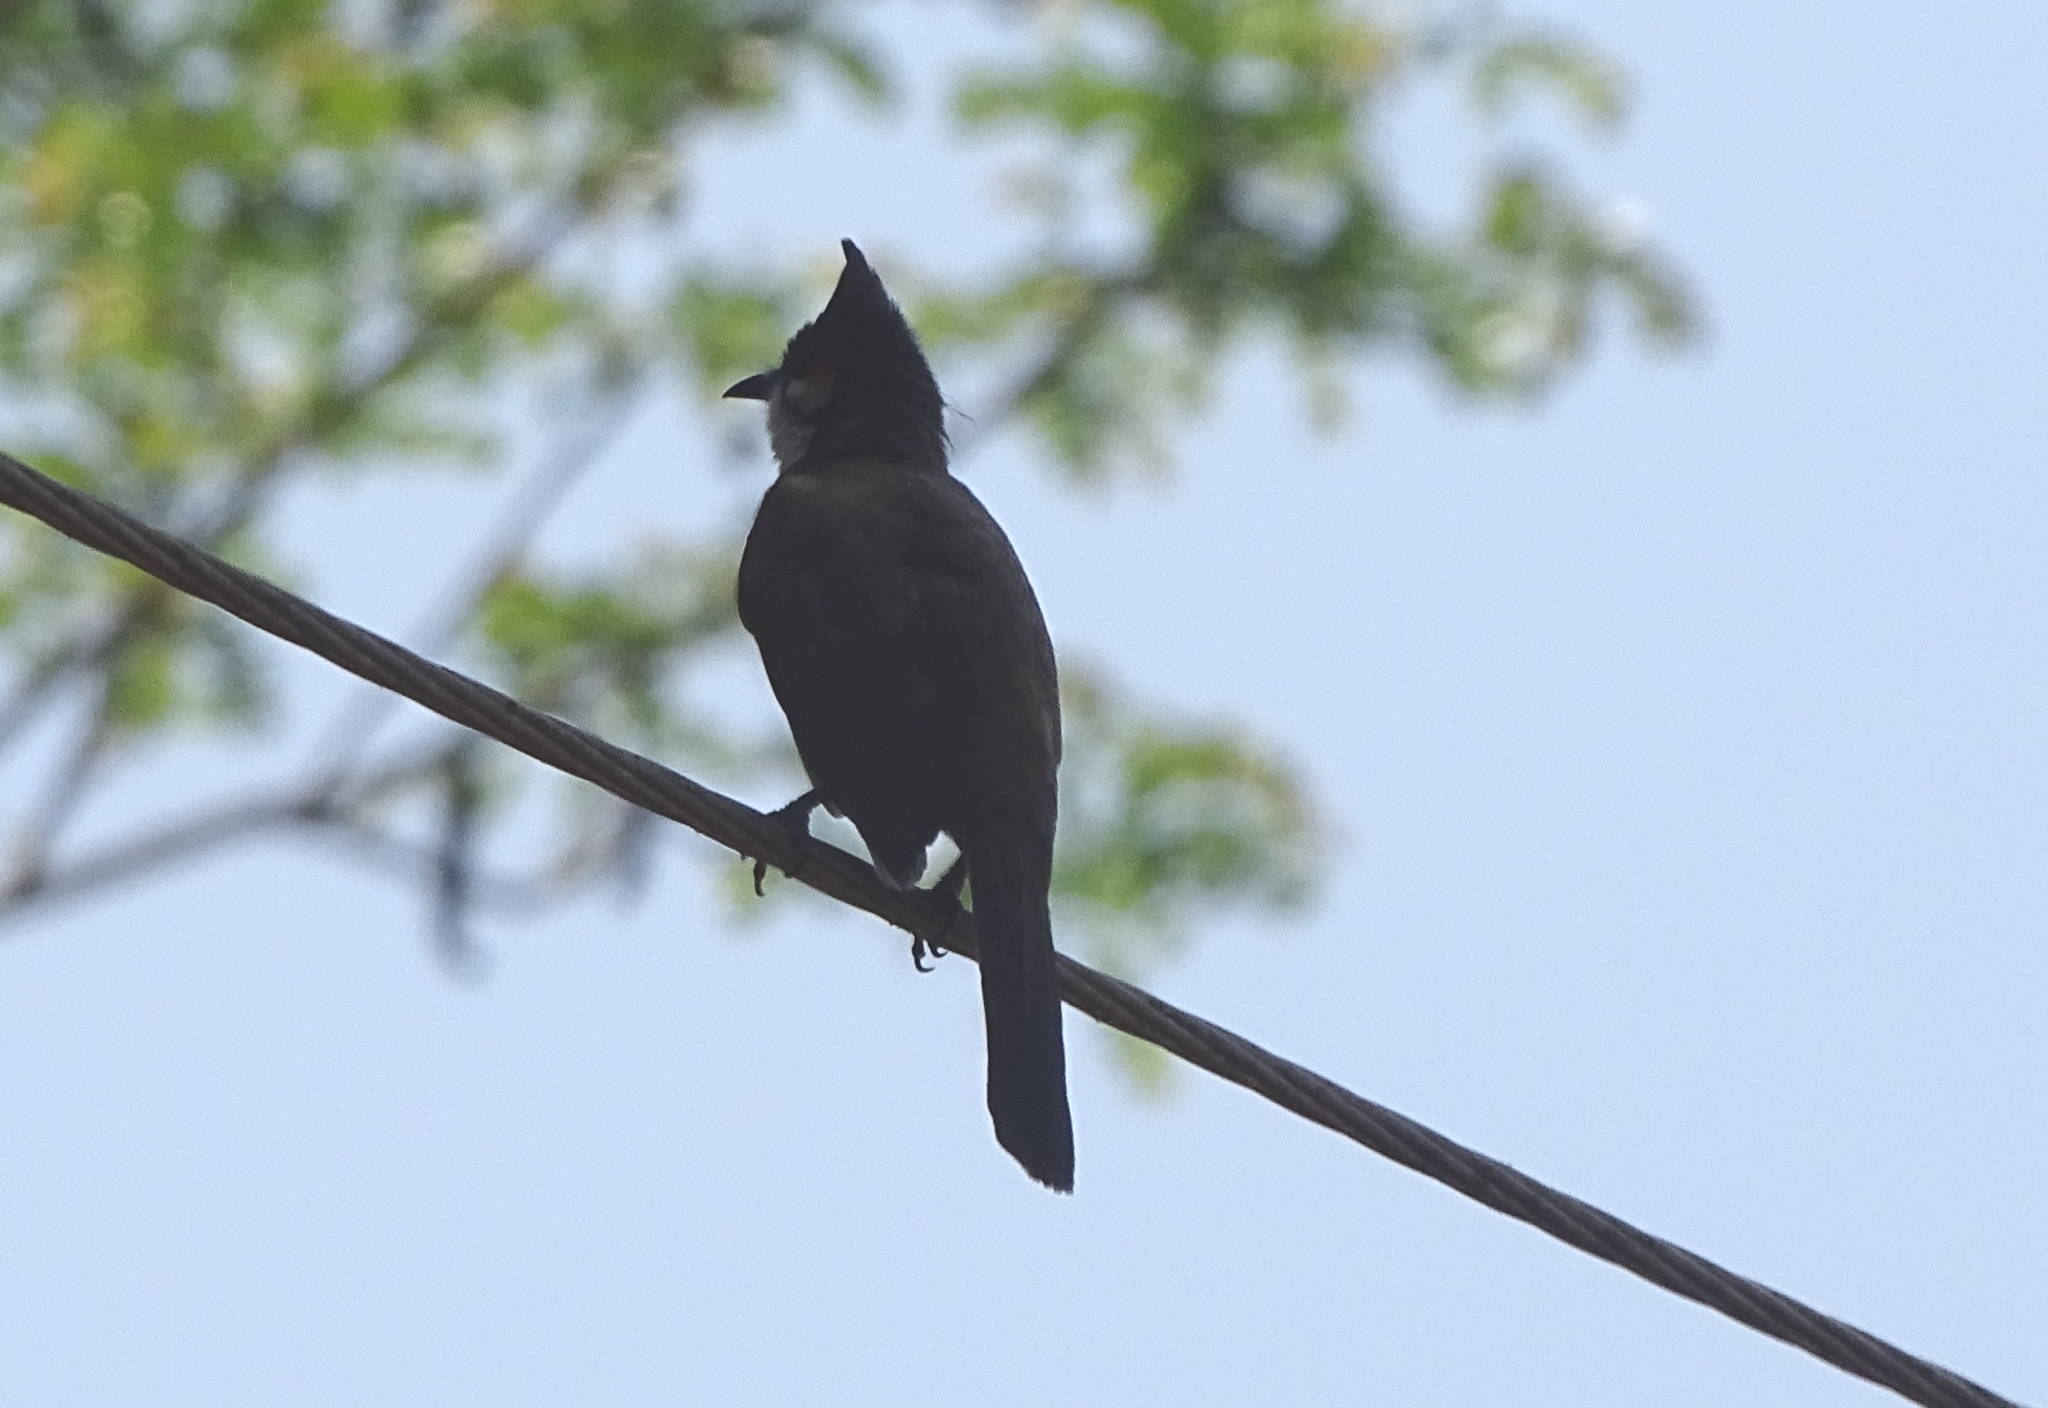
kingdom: Animalia
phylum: Chordata
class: Aves
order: Passeriformes
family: Pycnonotidae
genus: Pycnonotus
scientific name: Pycnonotus jocosus
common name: Red-whiskered bulbul
